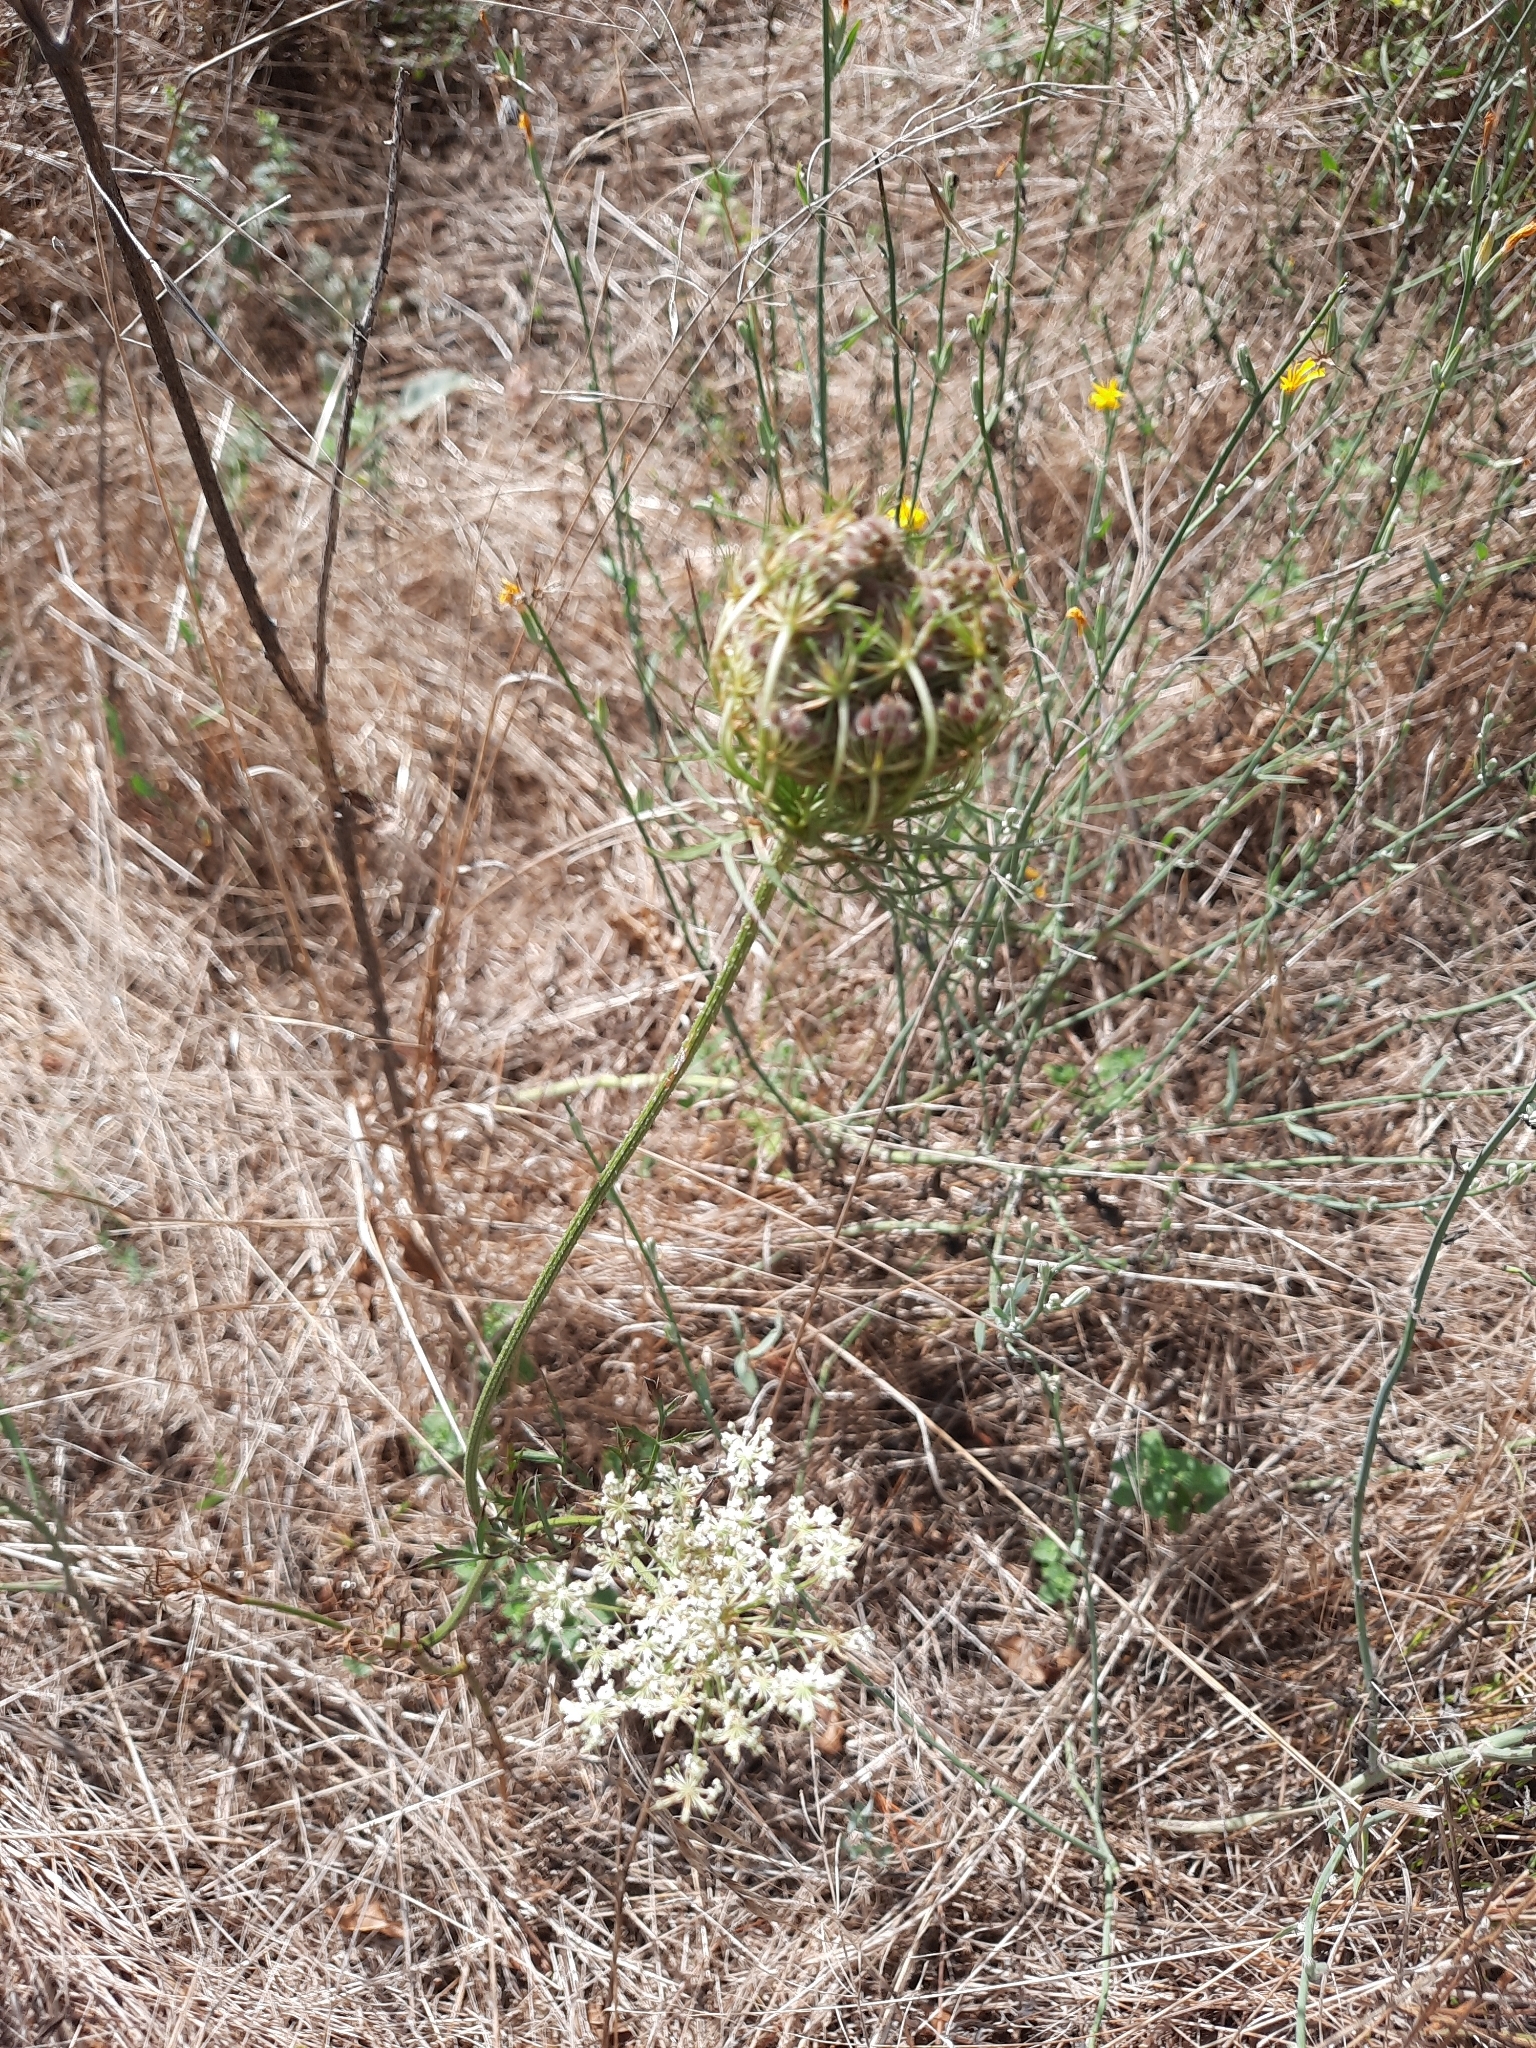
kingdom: Plantae
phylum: Tracheophyta
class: Magnoliopsida
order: Apiales
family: Apiaceae
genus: Daucus
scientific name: Daucus carota
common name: Wild carrot
